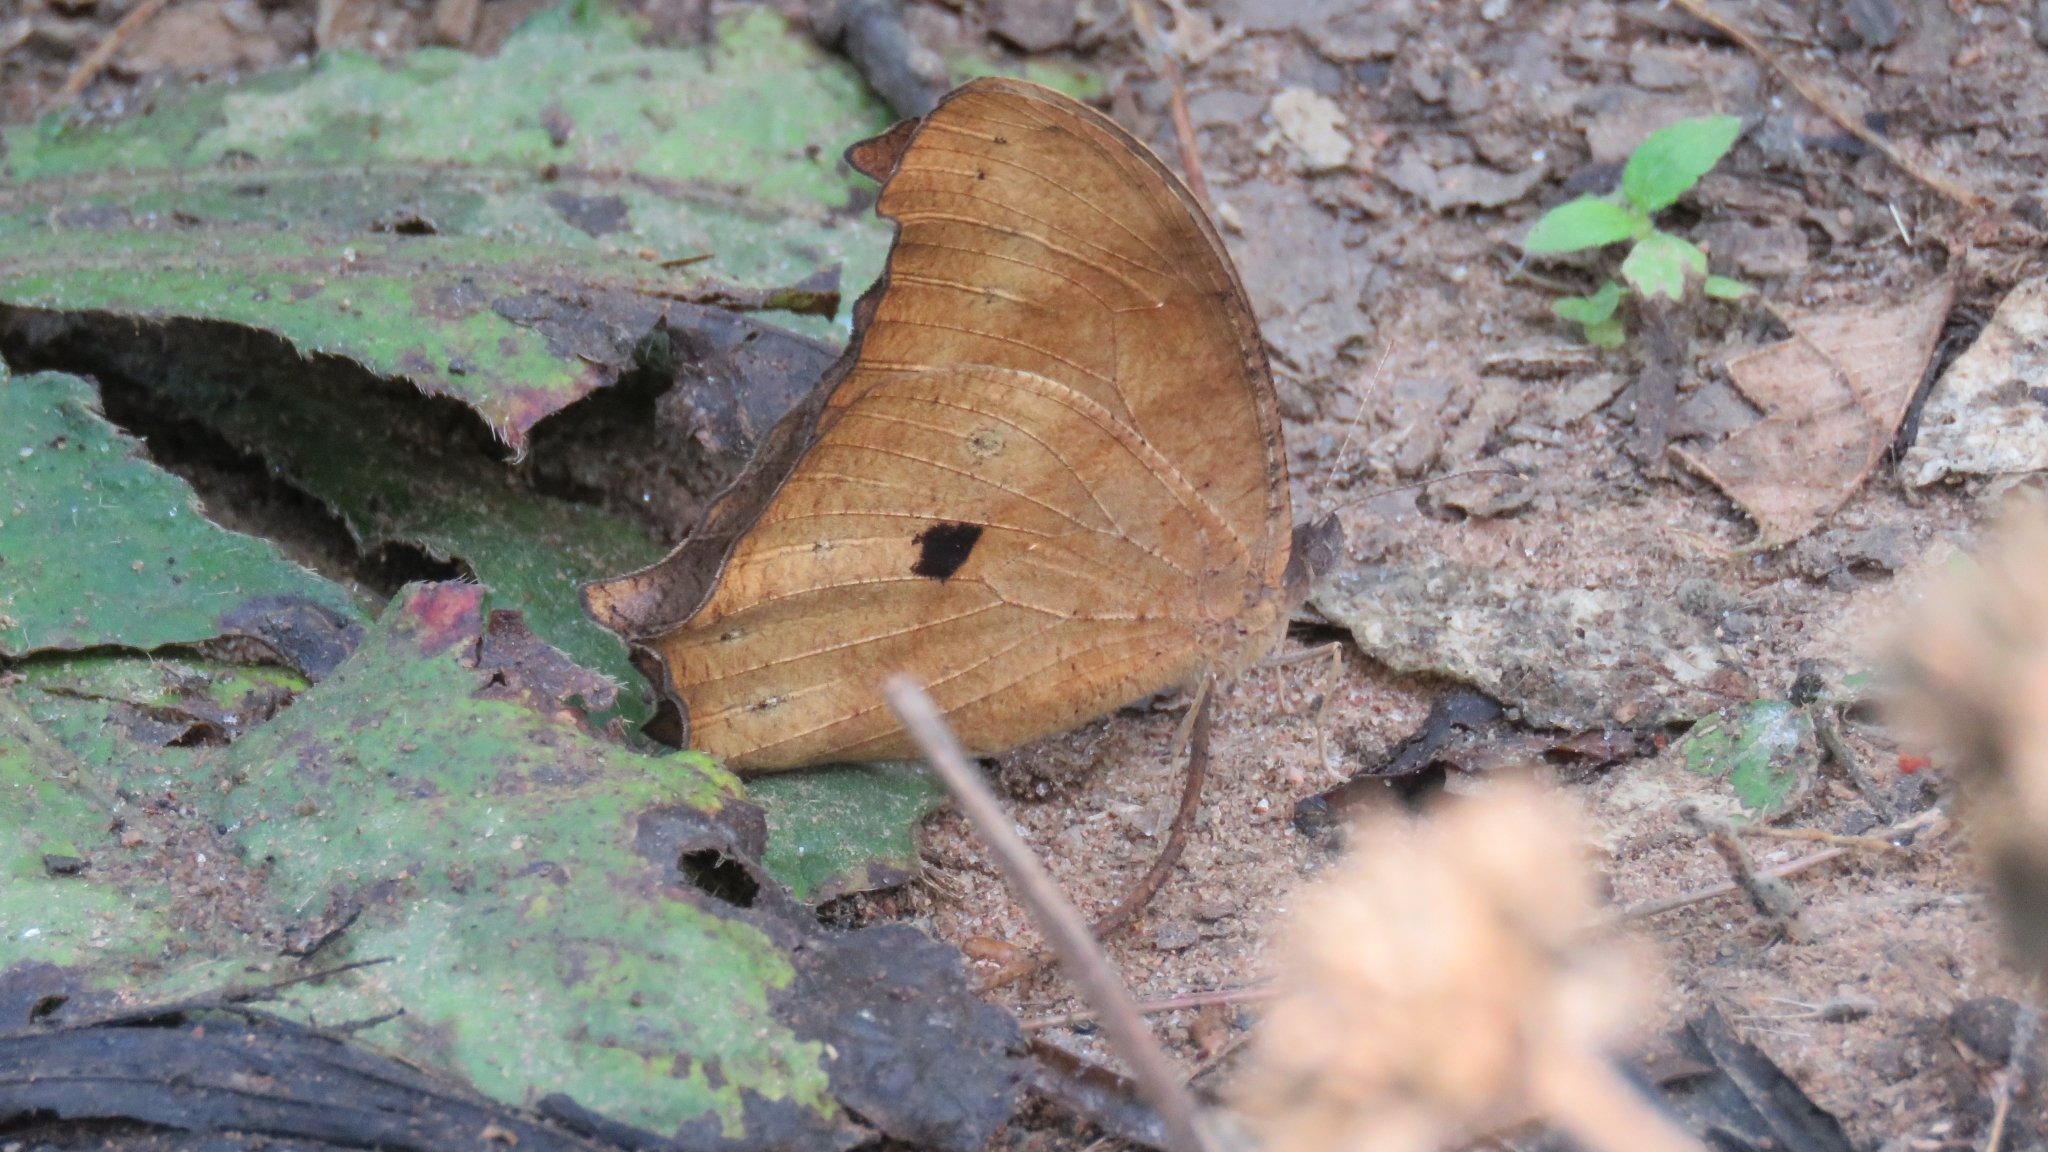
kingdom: Animalia
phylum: Arthropoda
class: Insecta
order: Lepidoptera
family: Nymphalidae
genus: Melanitis
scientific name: Melanitis leda
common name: Twilight brown
